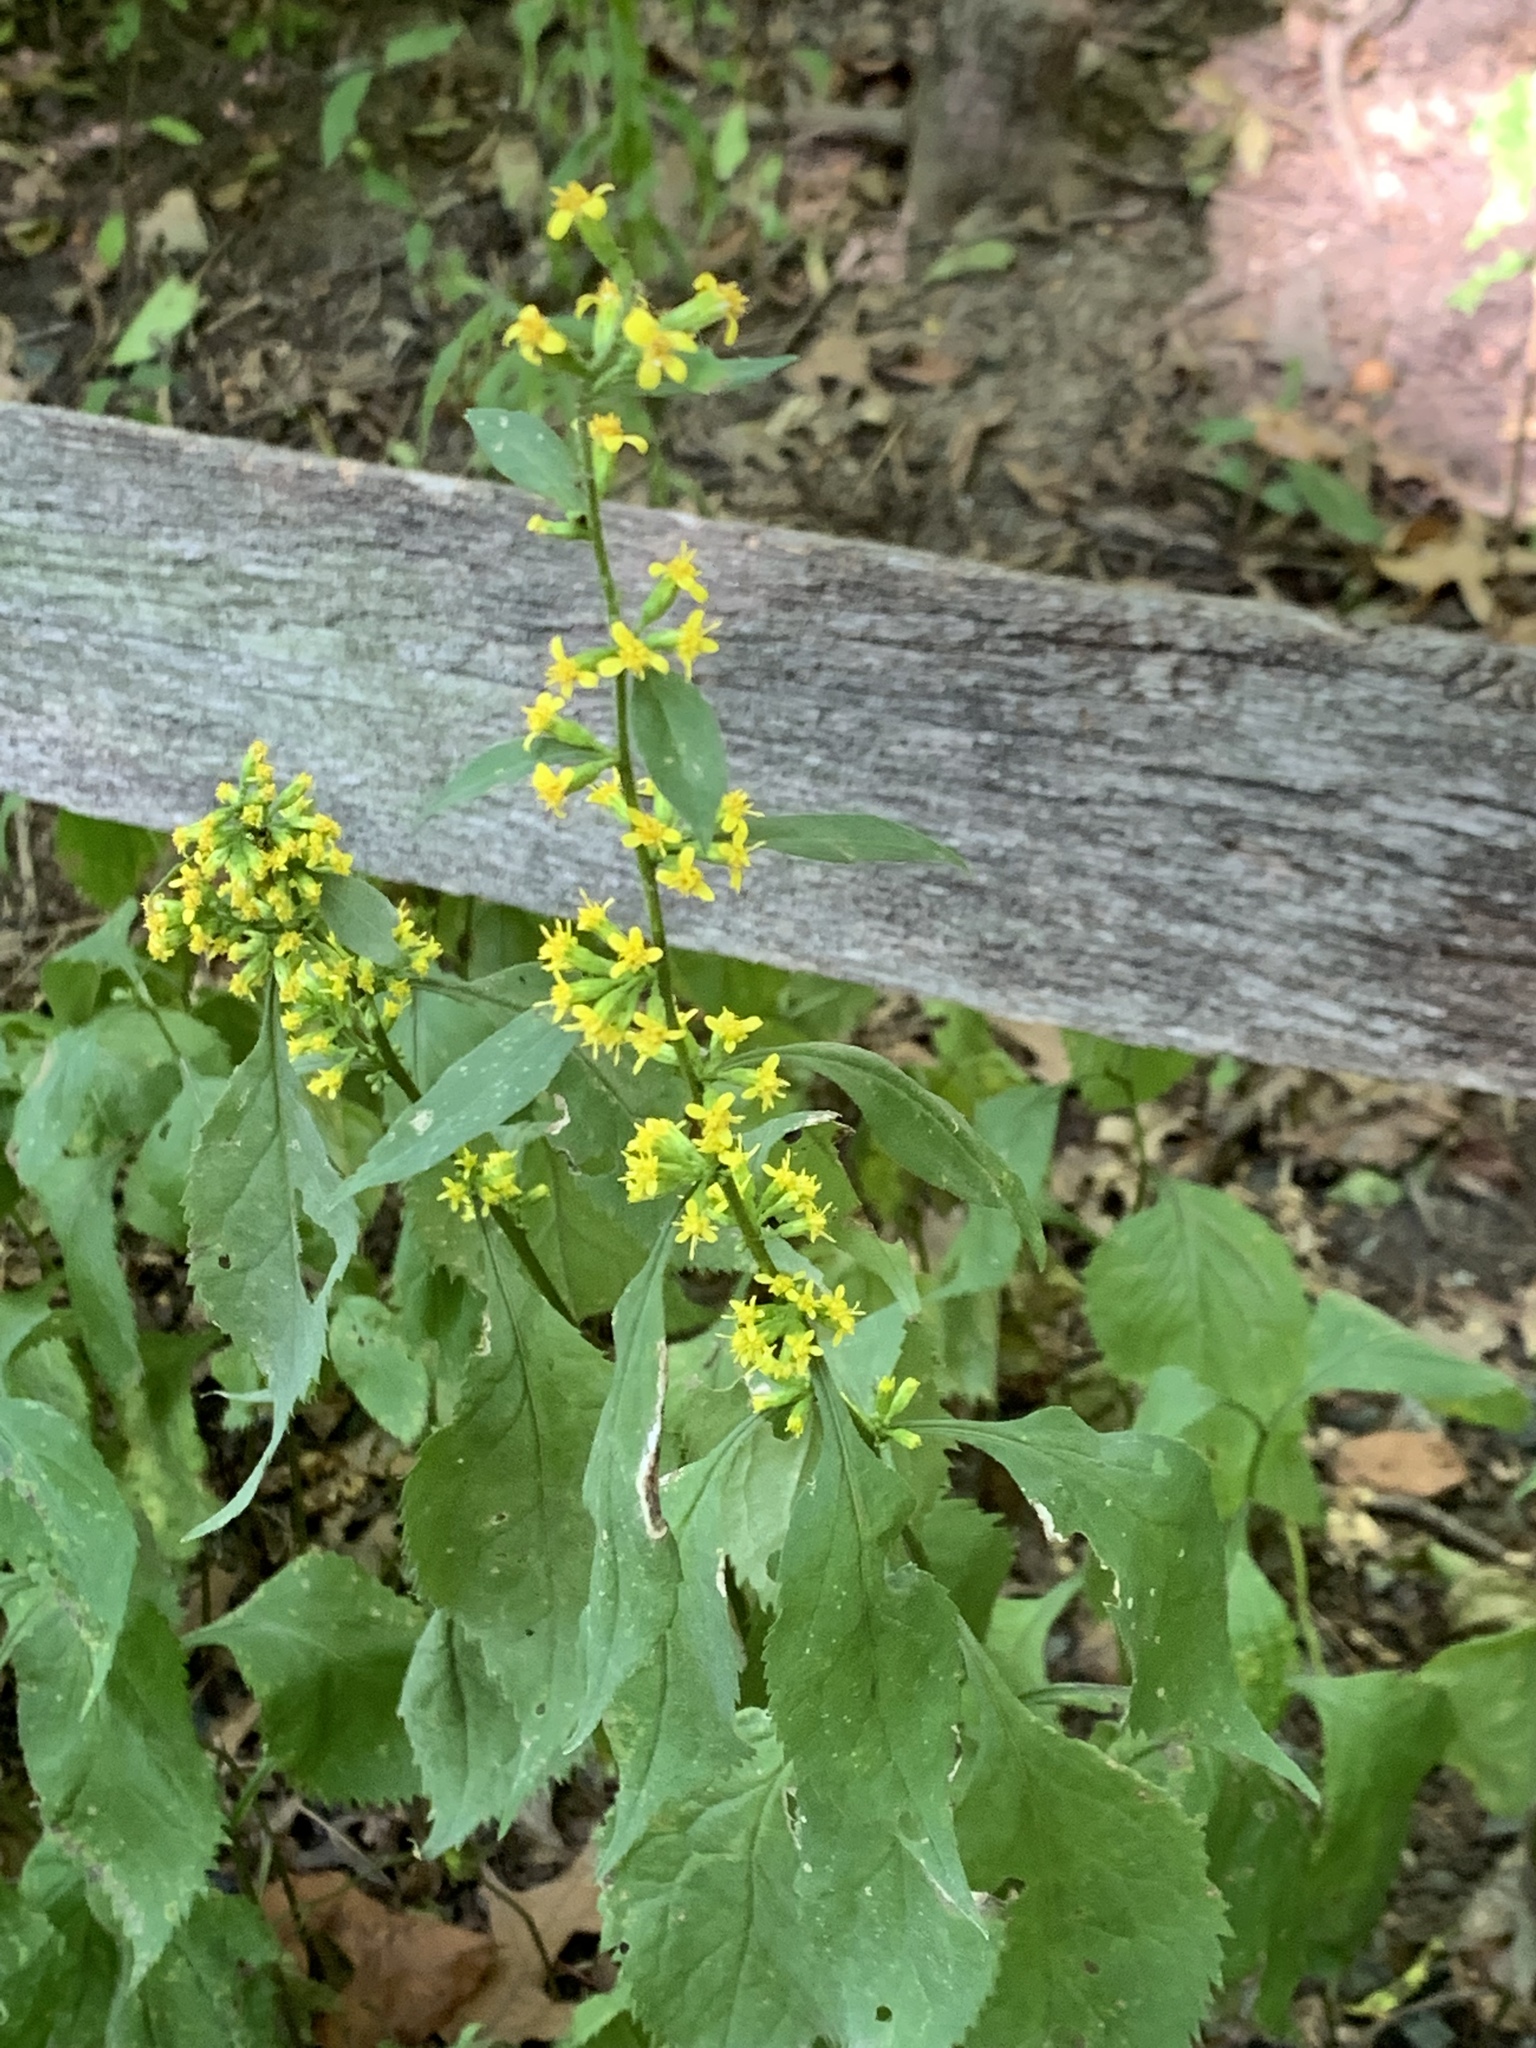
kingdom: Plantae
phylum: Tracheophyta
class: Magnoliopsida
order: Asterales
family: Asteraceae
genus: Solidago
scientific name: Solidago flexicaulis
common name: Zig-zag goldenrod
